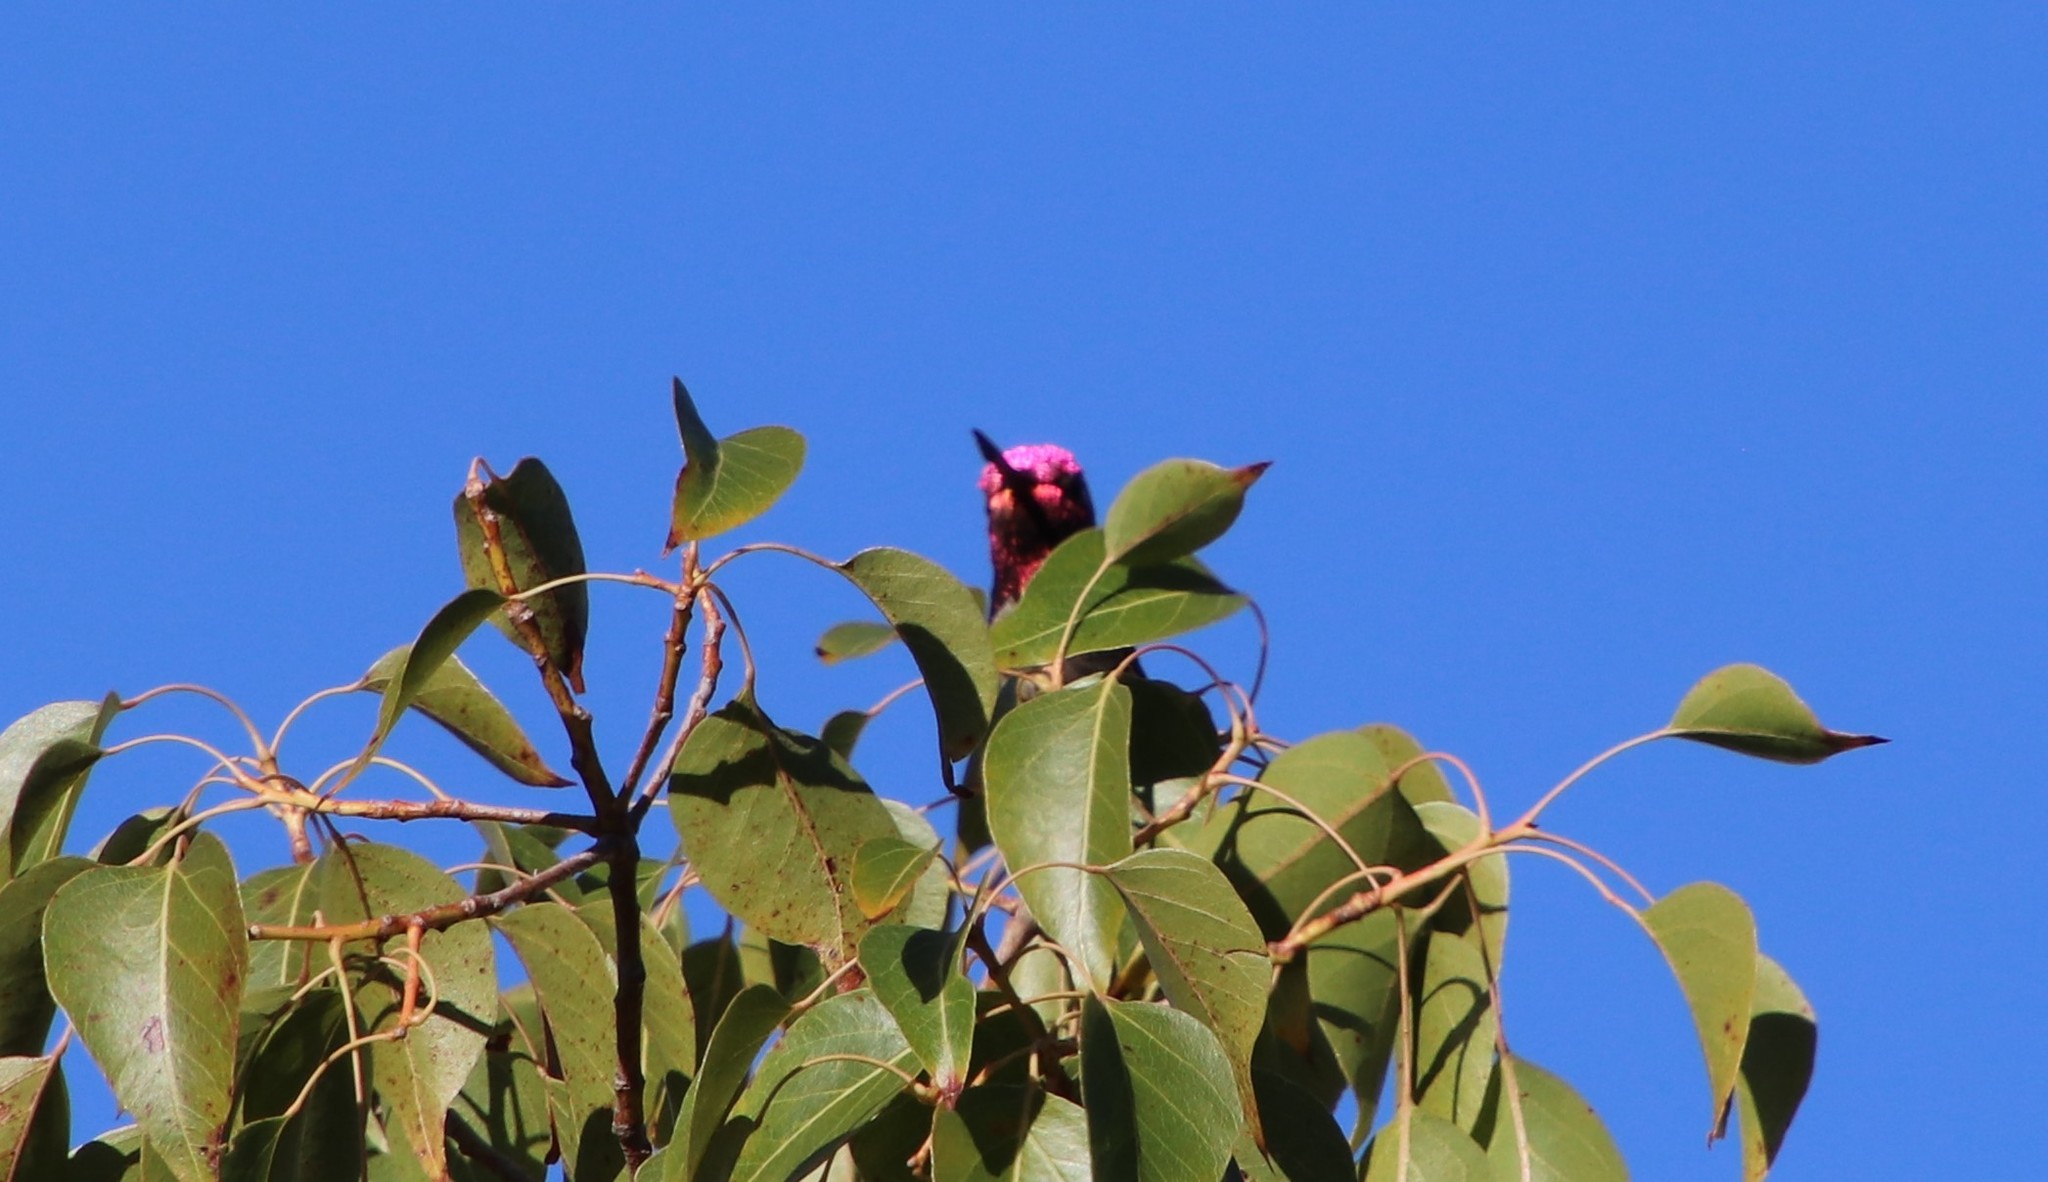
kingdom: Animalia
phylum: Chordata
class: Aves
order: Apodiformes
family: Trochilidae
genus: Calypte
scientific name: Calypte anna
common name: Anna's hummingbird
